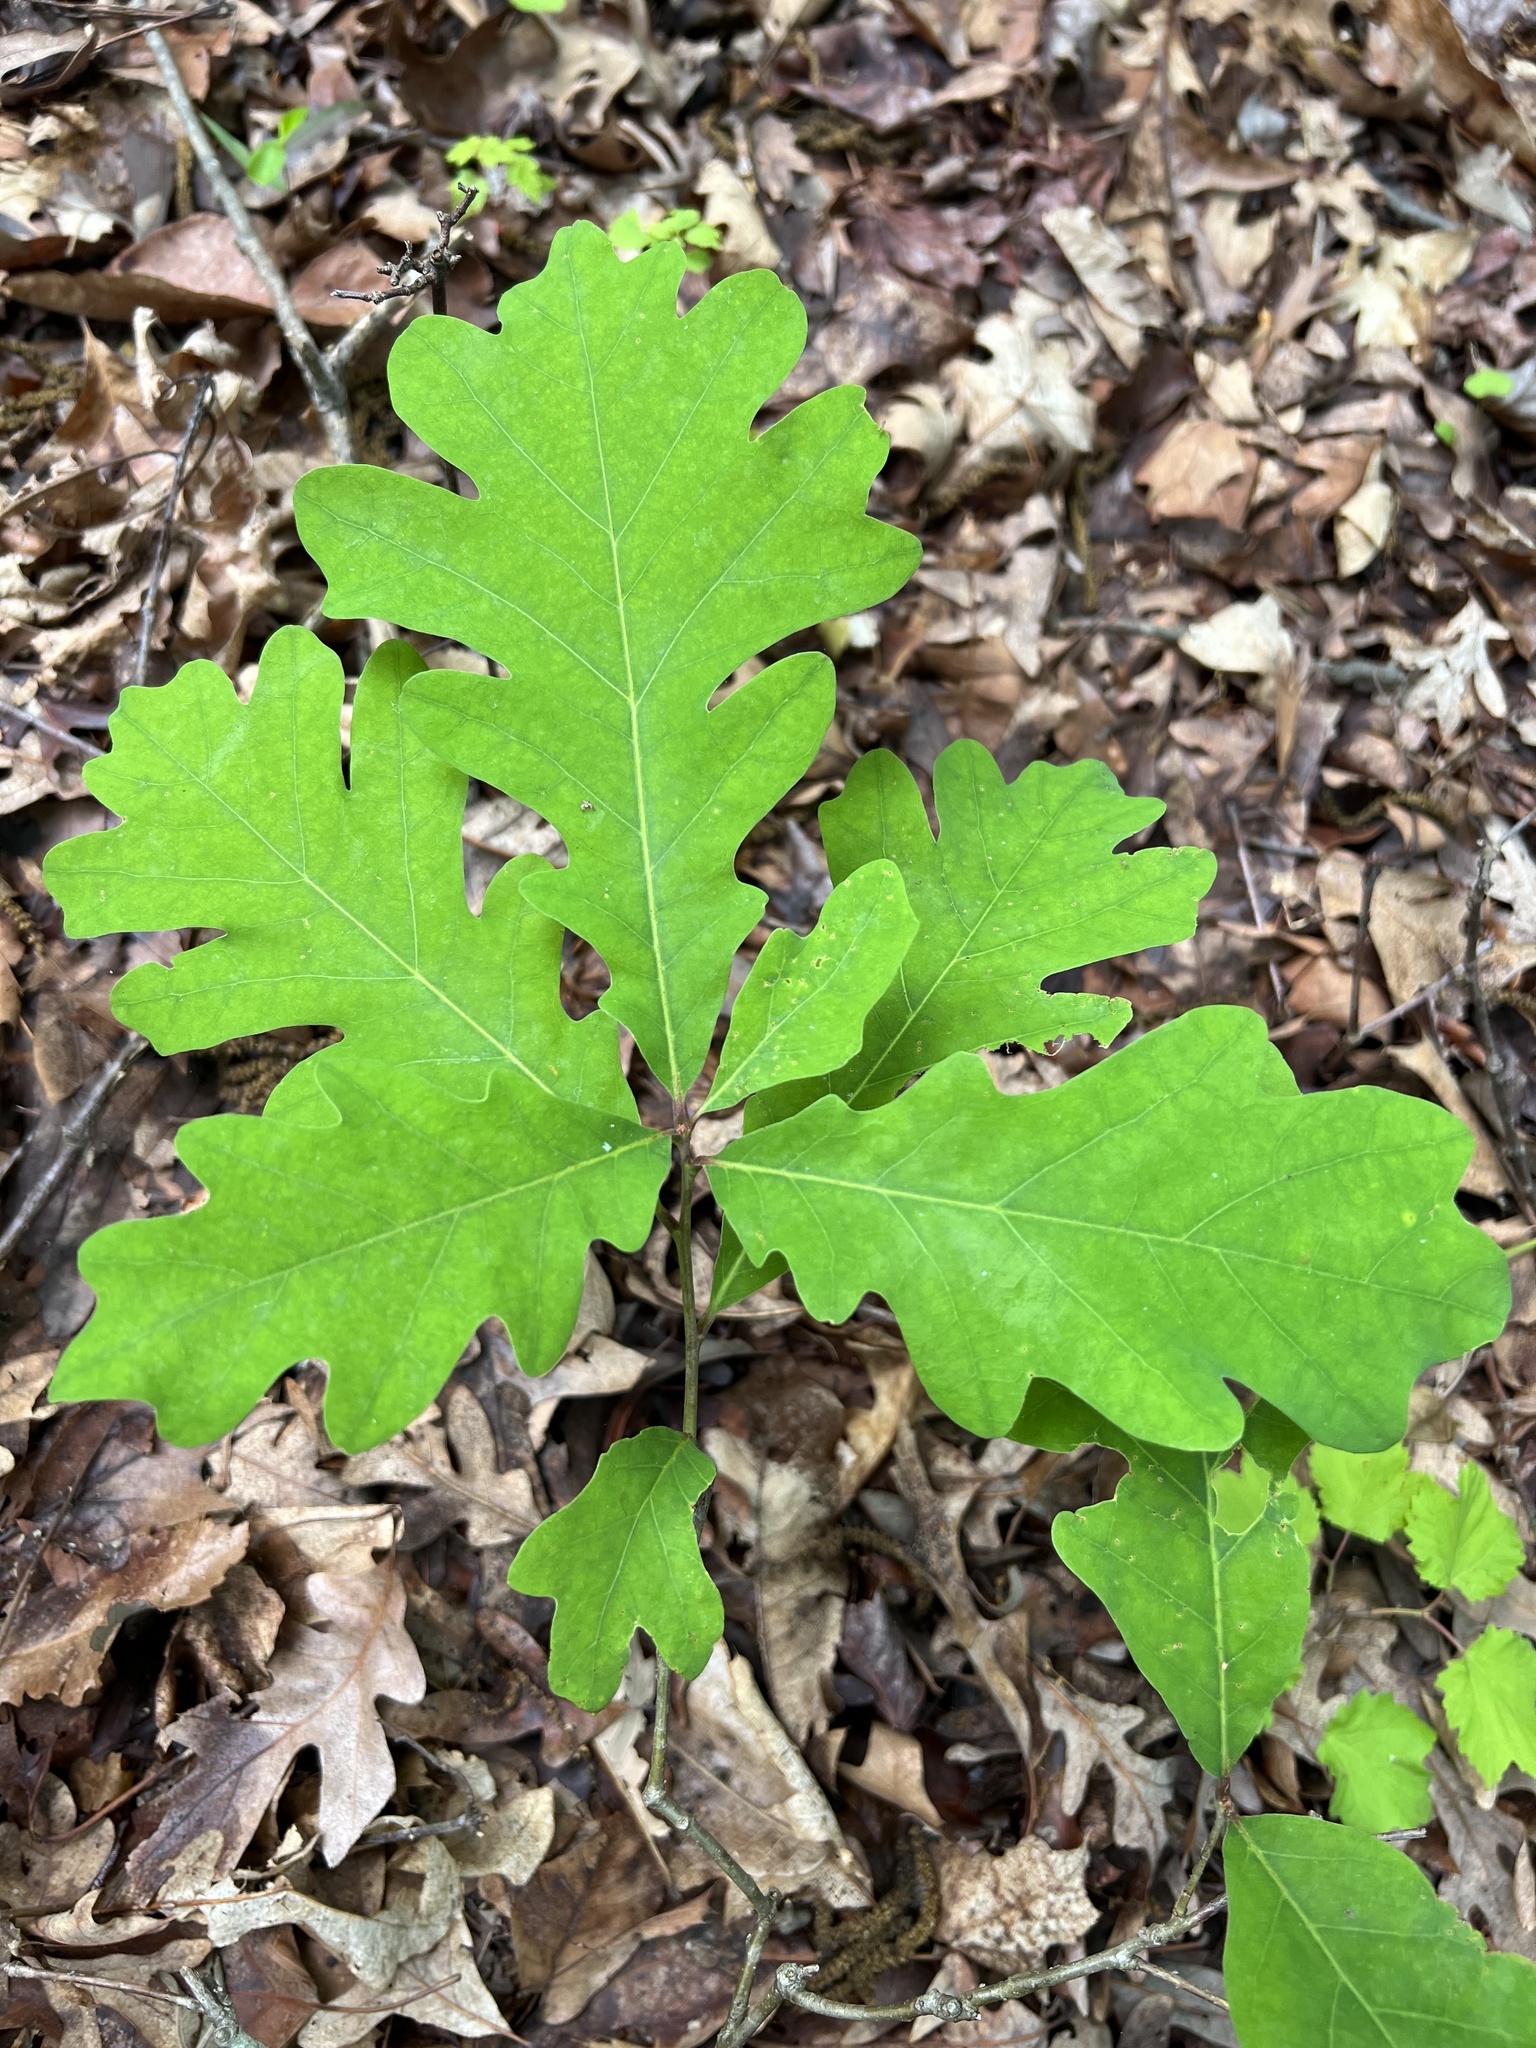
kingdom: Plantae
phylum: Tracheophyta
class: Magnoliopsida
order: Fagales
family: Fagaceae
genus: Quercus
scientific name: Quercus alba
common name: White oak
